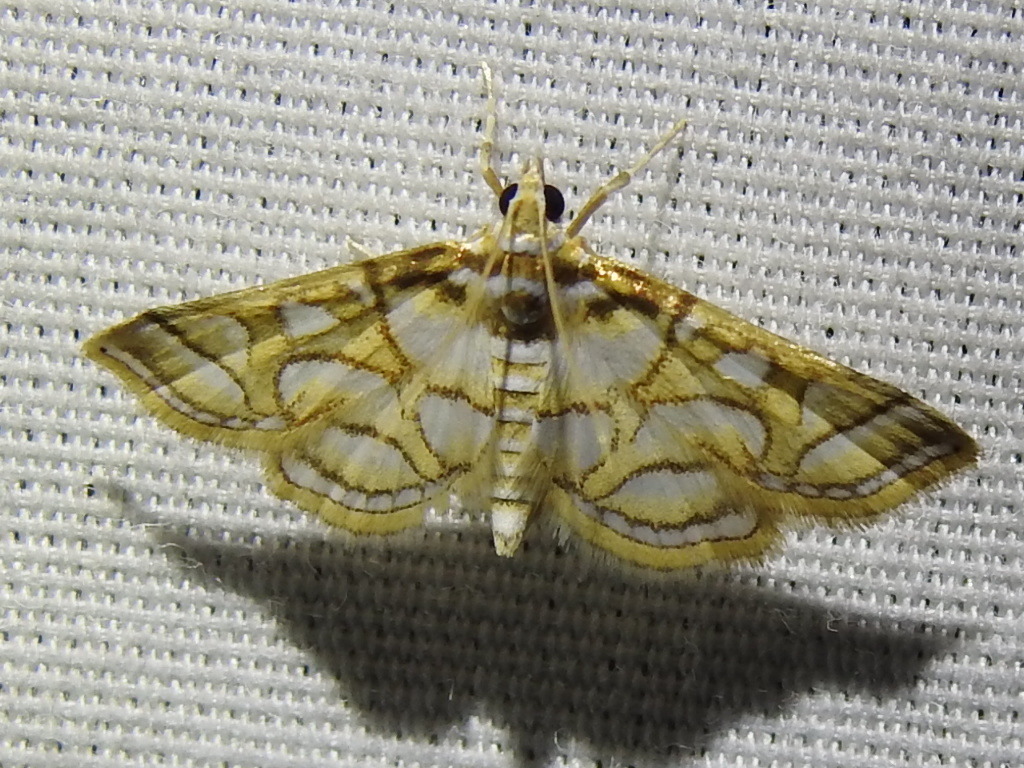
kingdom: Animalia
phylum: Arthropoda
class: Insecta
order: Lepidoptera
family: Crambidae
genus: Pseudopyrausta
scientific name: Pseudopyrausta santatalis
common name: Moth
